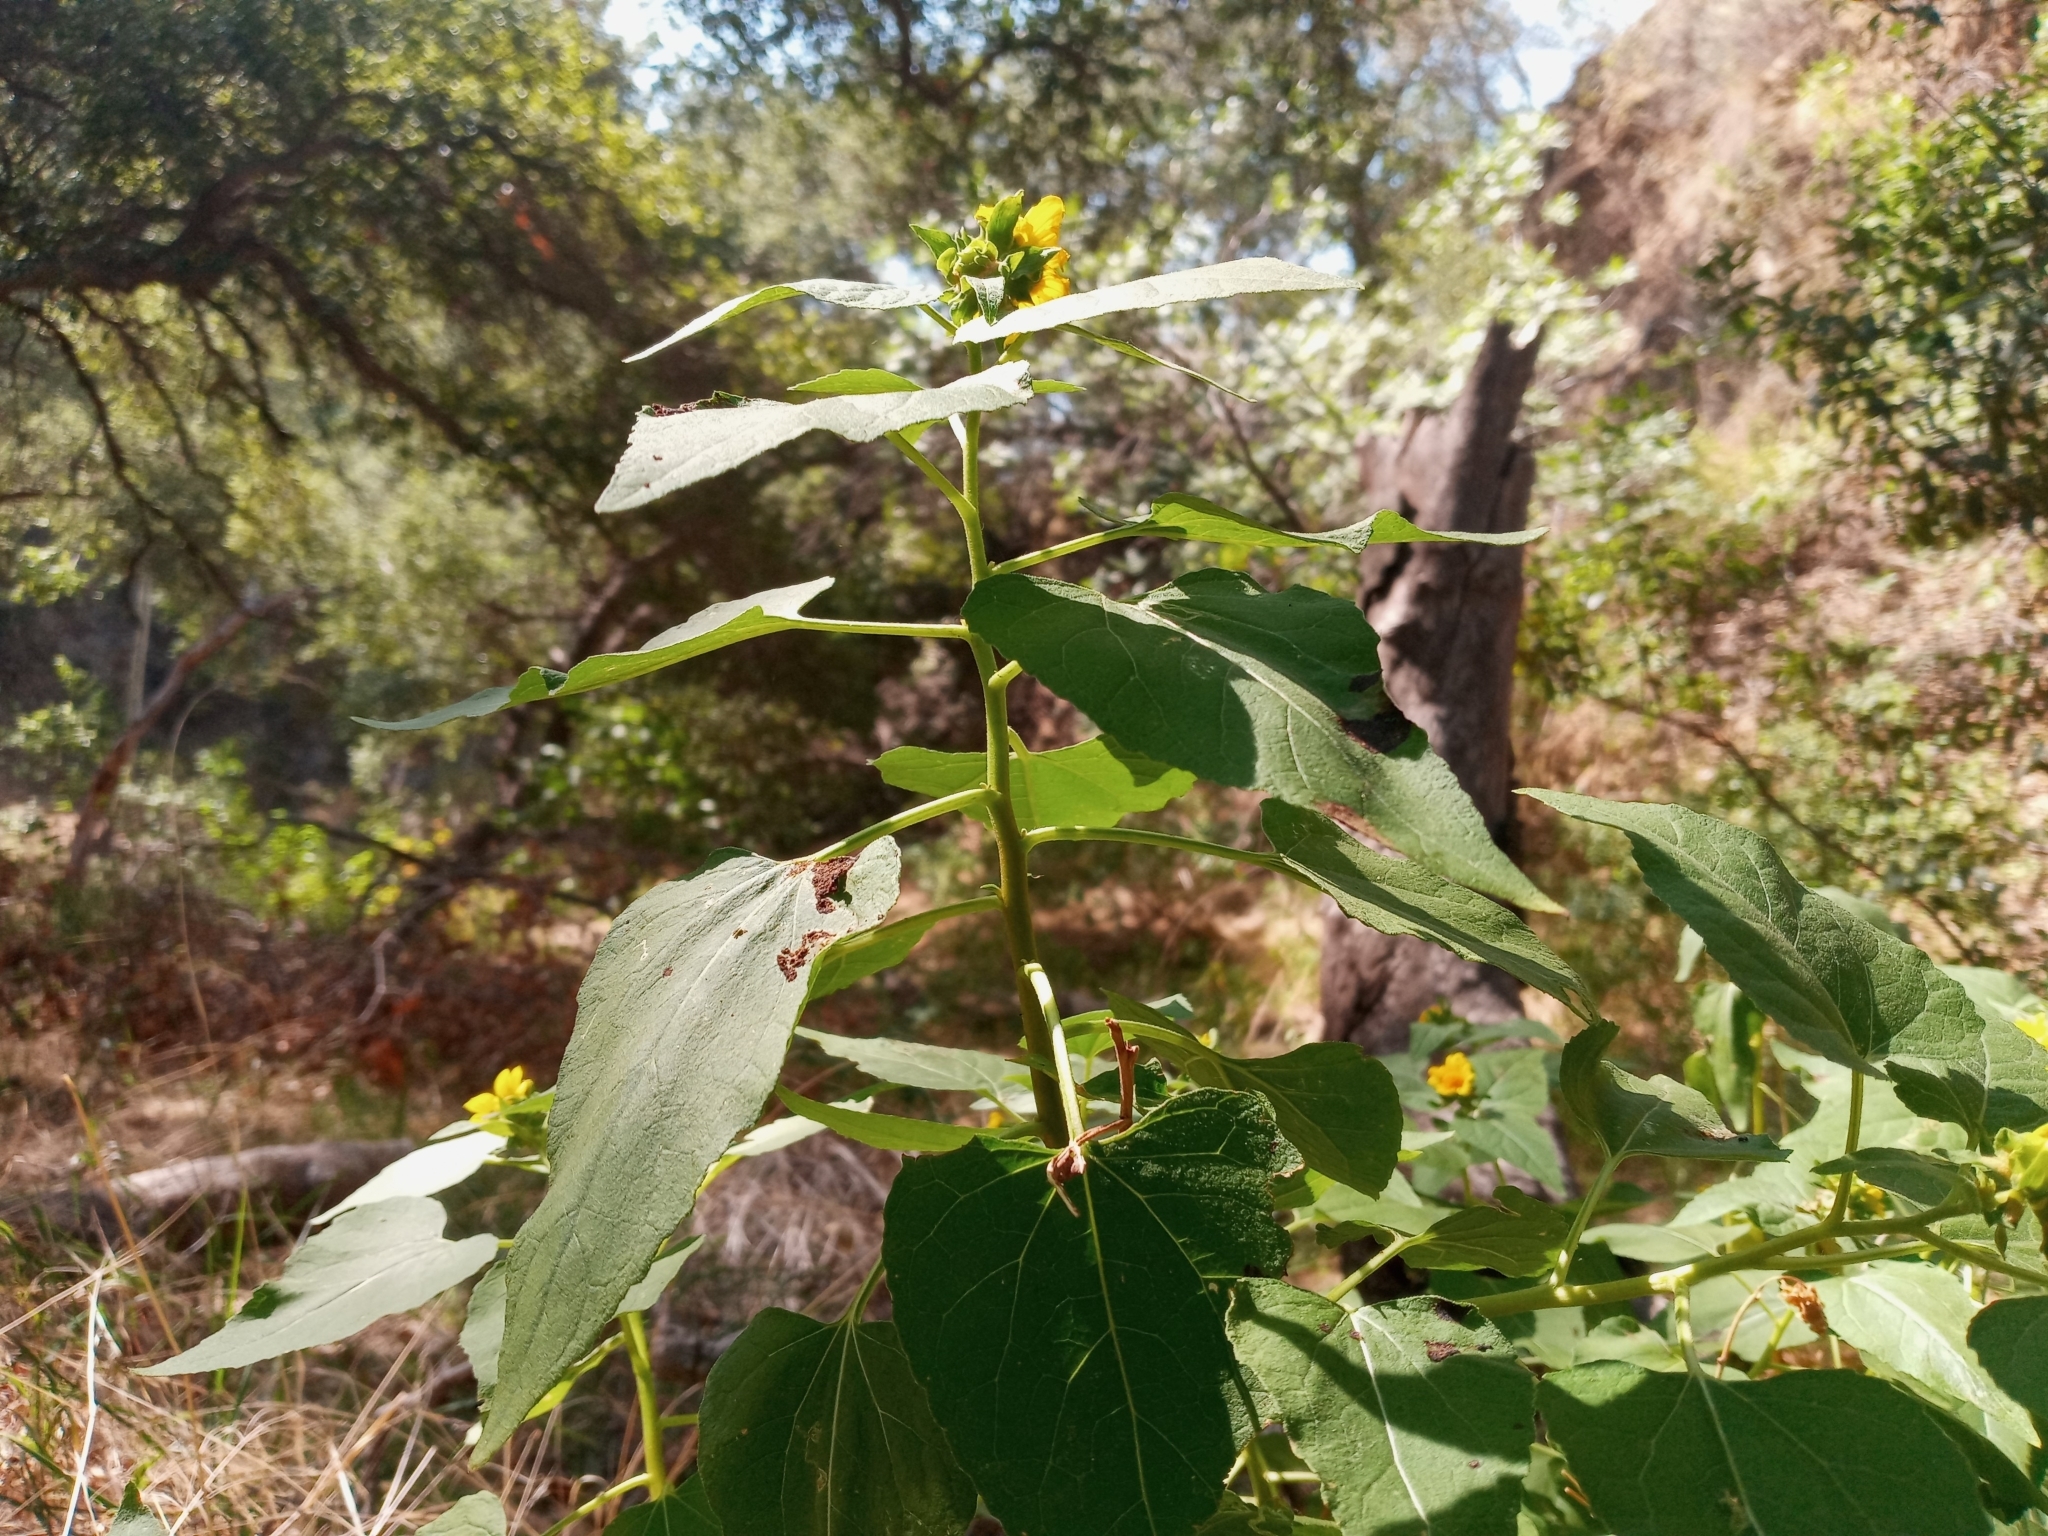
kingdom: Plantae
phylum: Tracheophyta
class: Magnoliopsida
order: Asterales
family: Asteraceae
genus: Venegasia
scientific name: Venegasia carpesioides
